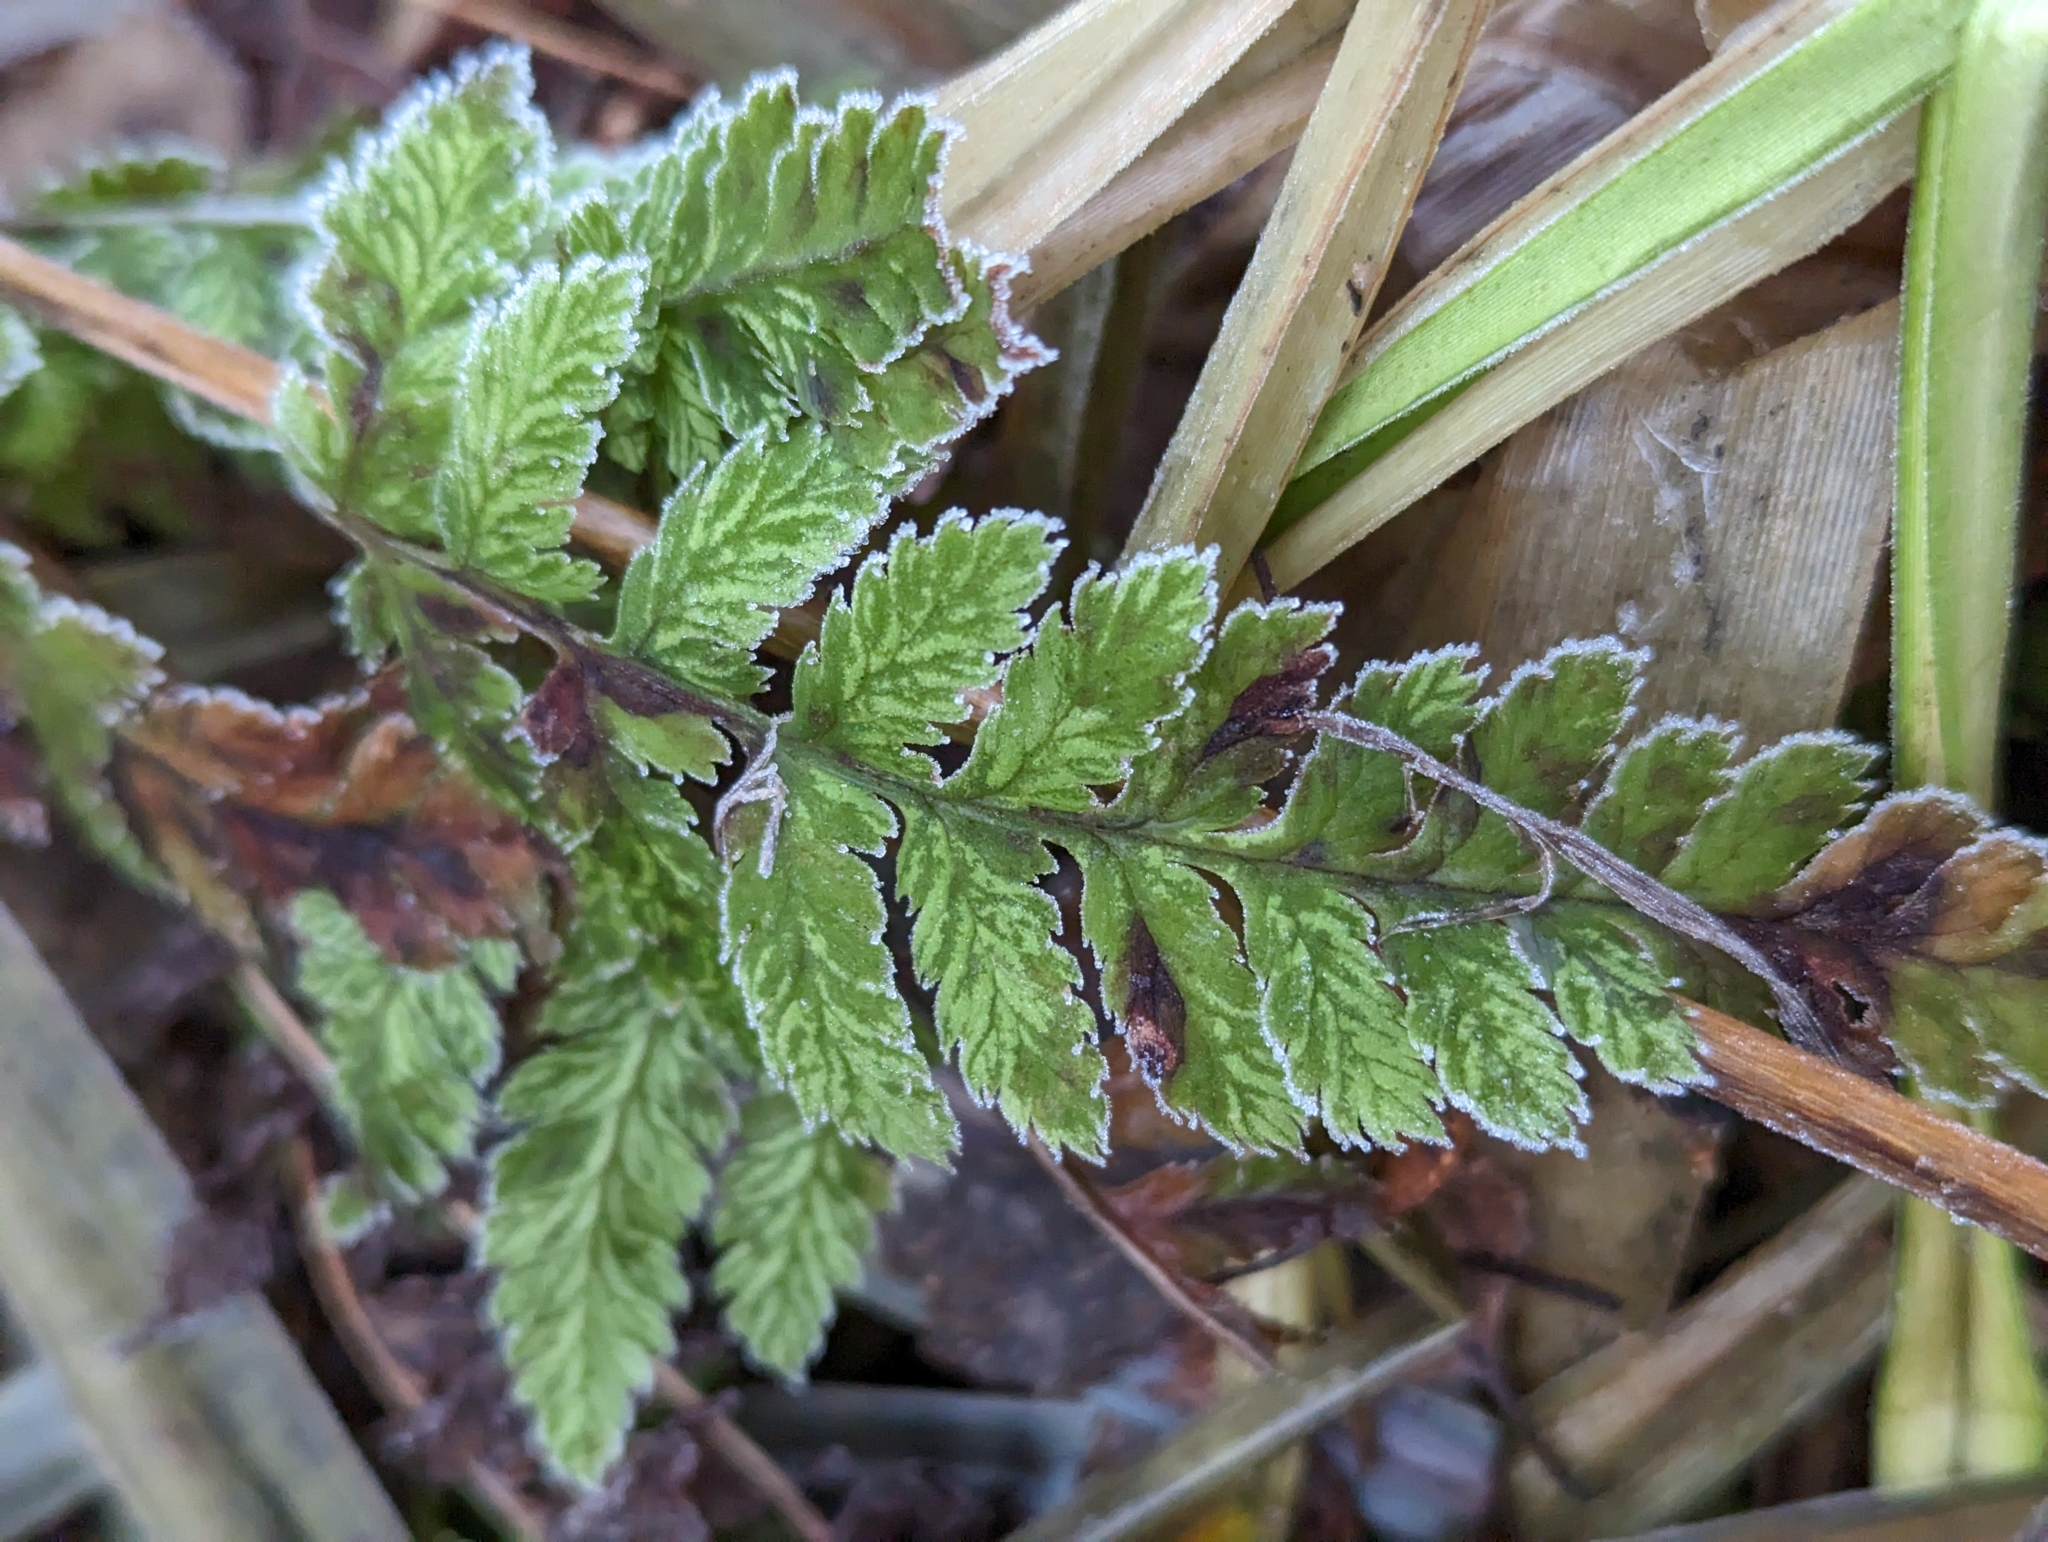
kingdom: Plantae
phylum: Tracheophyta
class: Polypodiopsida
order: Polypodiales
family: Dryopteridaceae
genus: Dryopteris
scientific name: Dryopteris expansa
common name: Northern buckler fern
